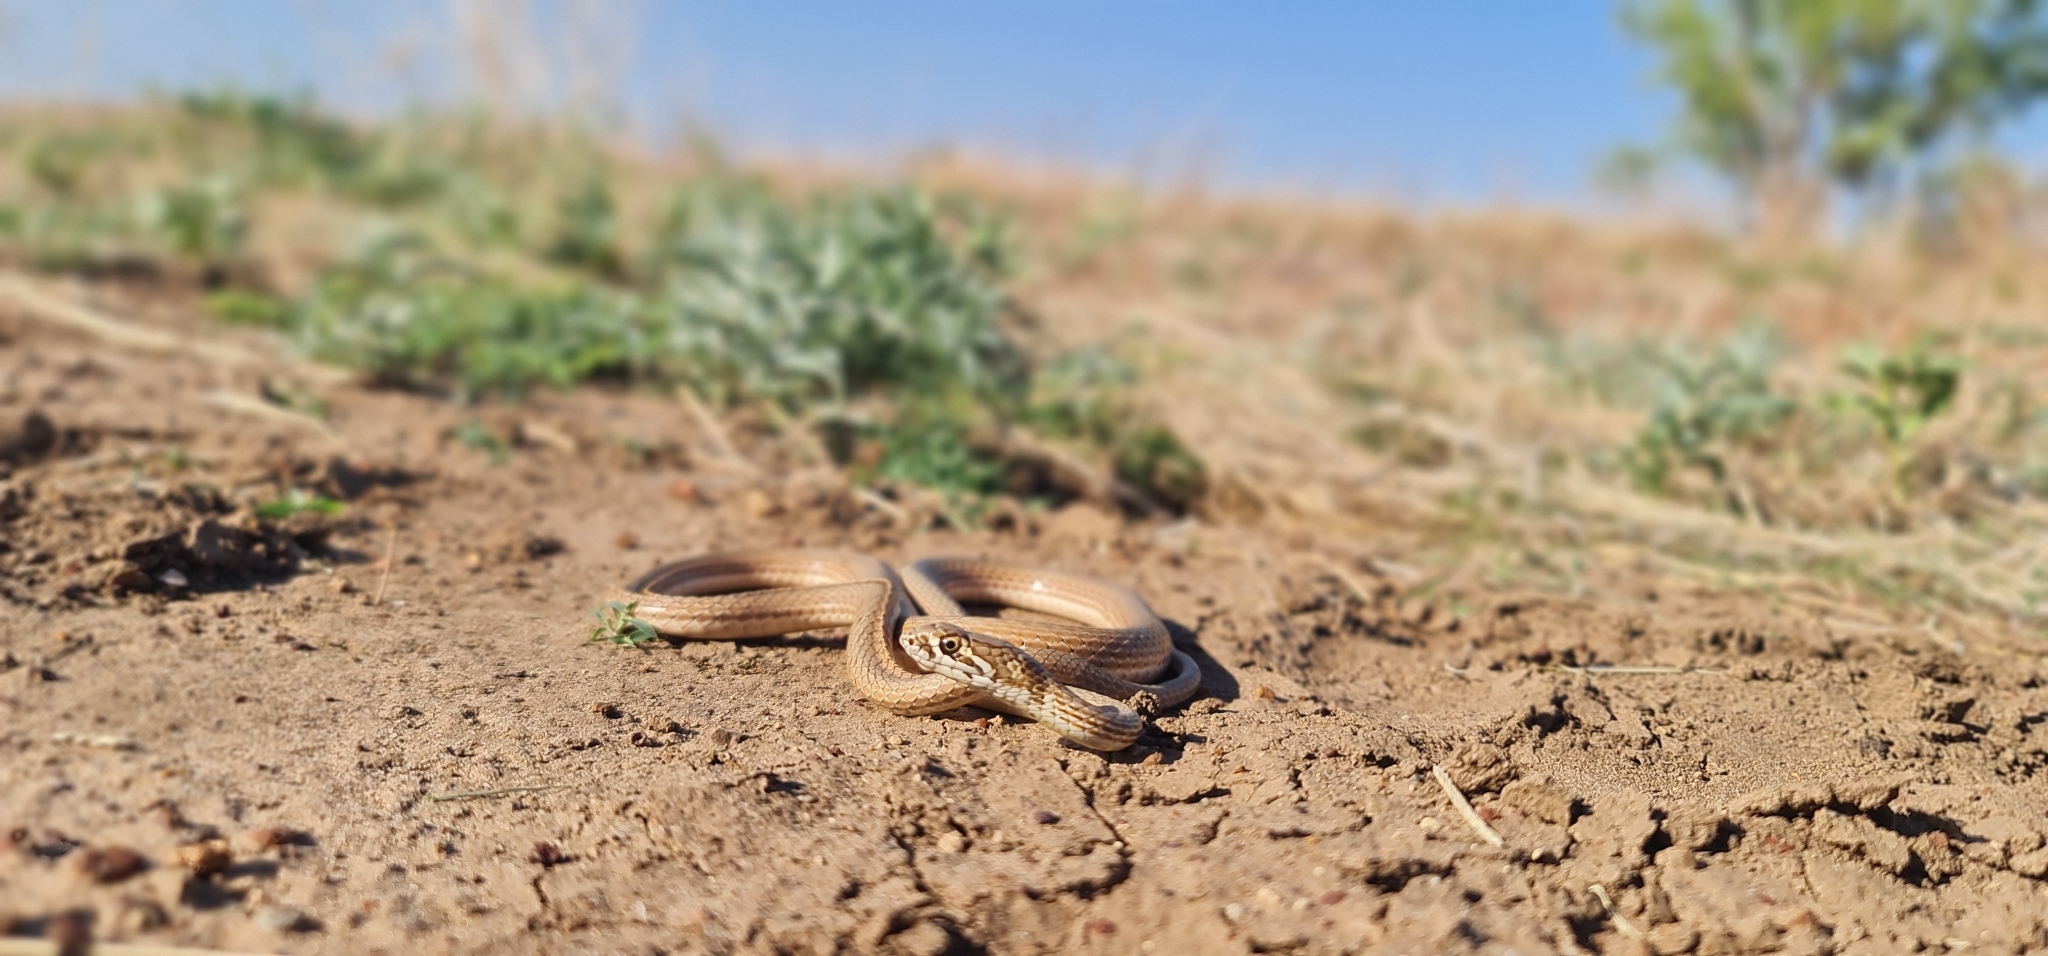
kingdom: Animalia
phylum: Chordata
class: Squamata
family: Elapidae
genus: Demansia
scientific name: Demansia rimicola
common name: Soil-crack whipsnake
